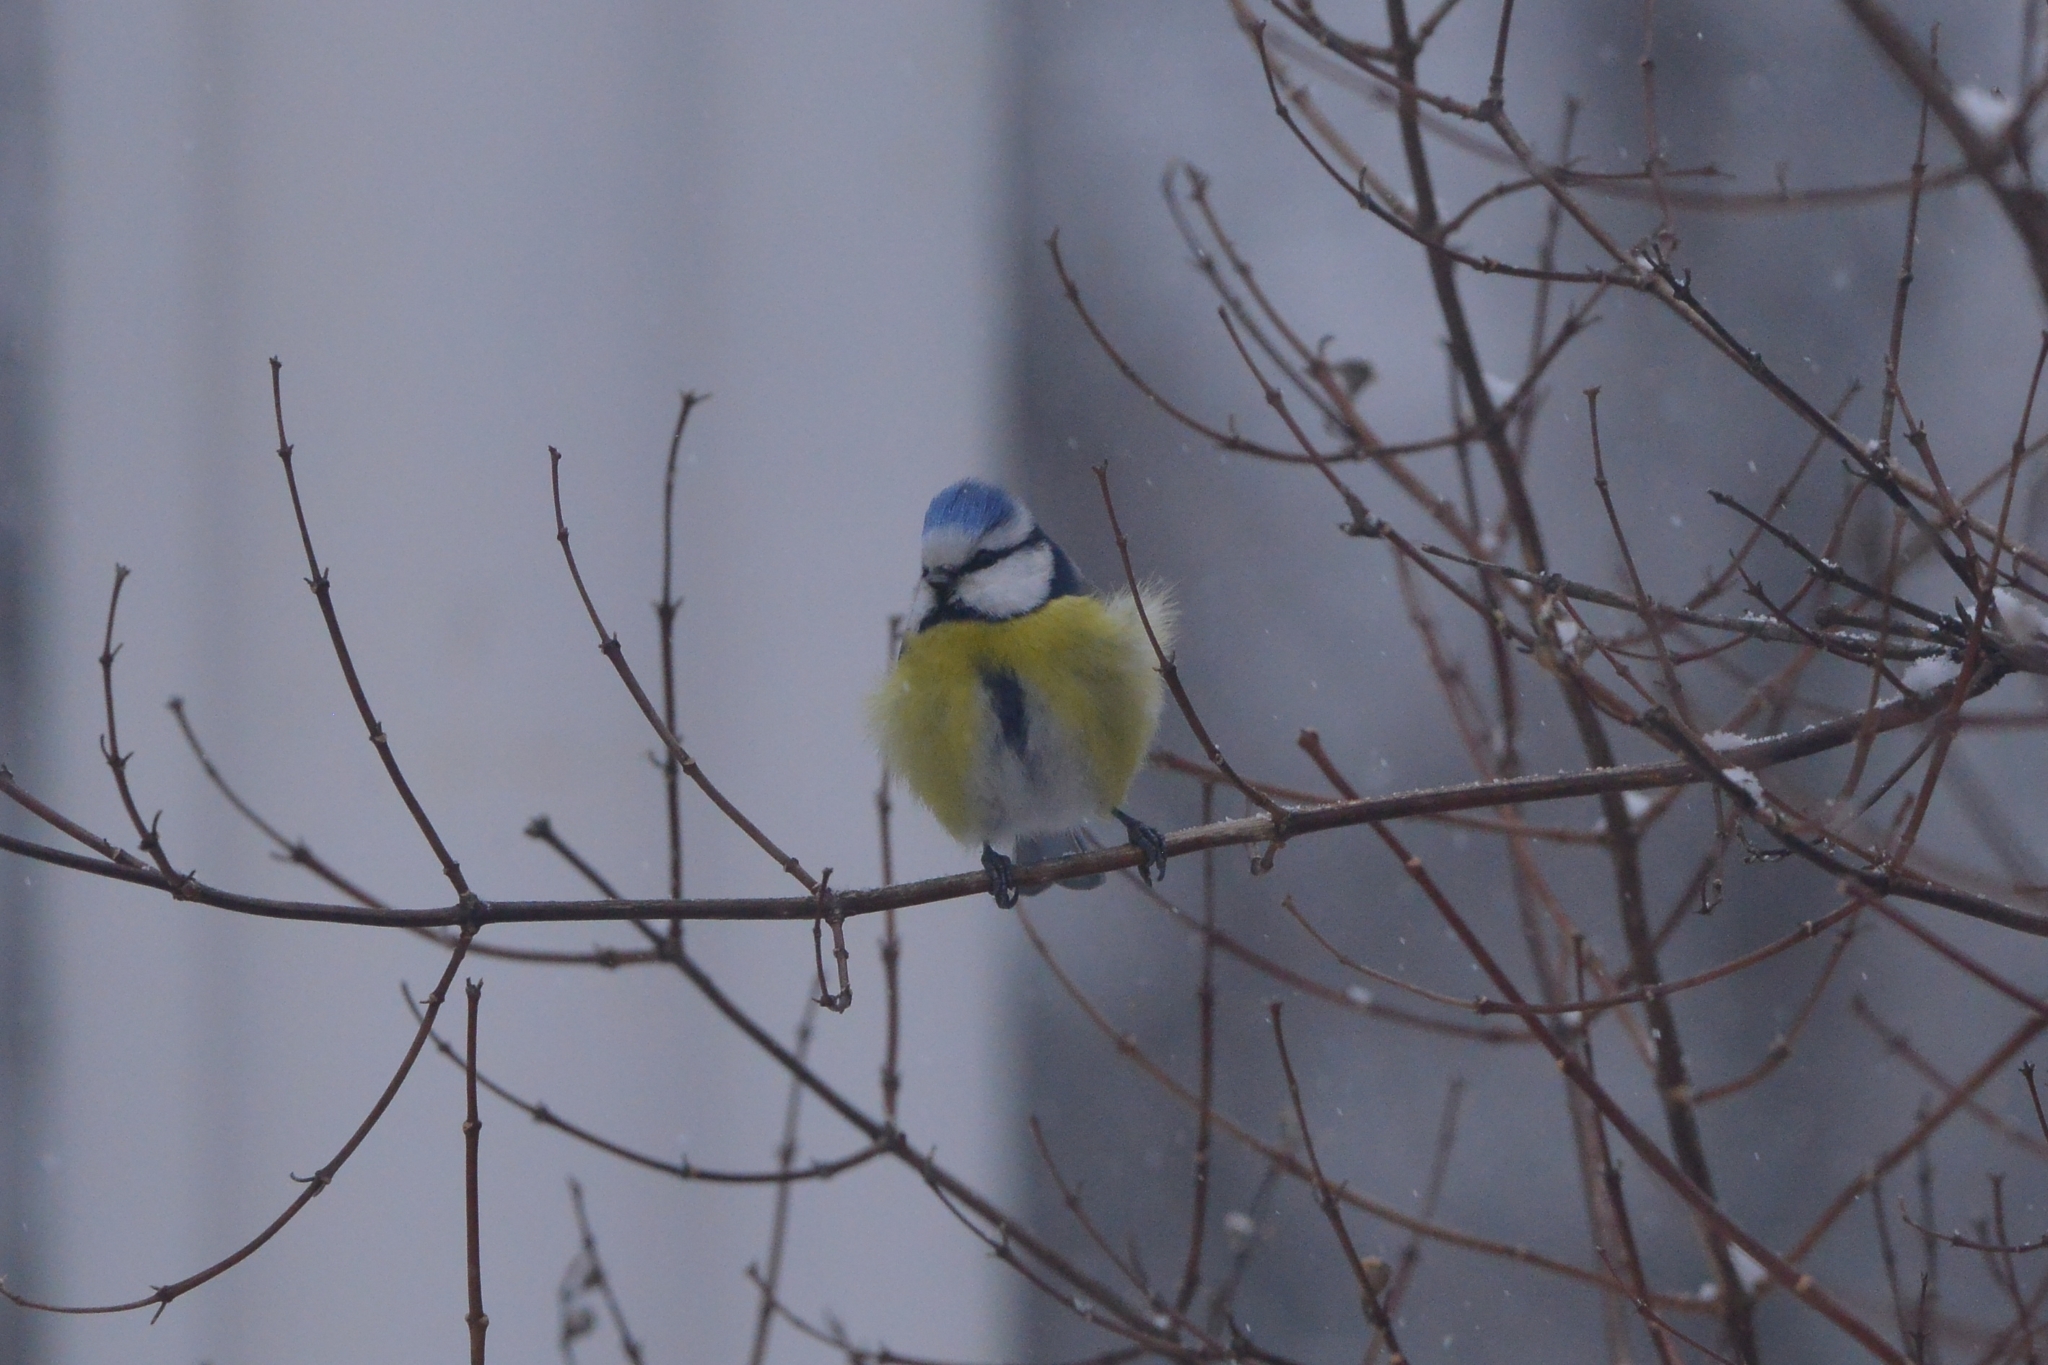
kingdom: Animalia
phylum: Chordata
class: Aves
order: Passeriformes
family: Paridae
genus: Cyanistes
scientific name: Cyanistes caeruleus
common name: Eurasian blue tit
